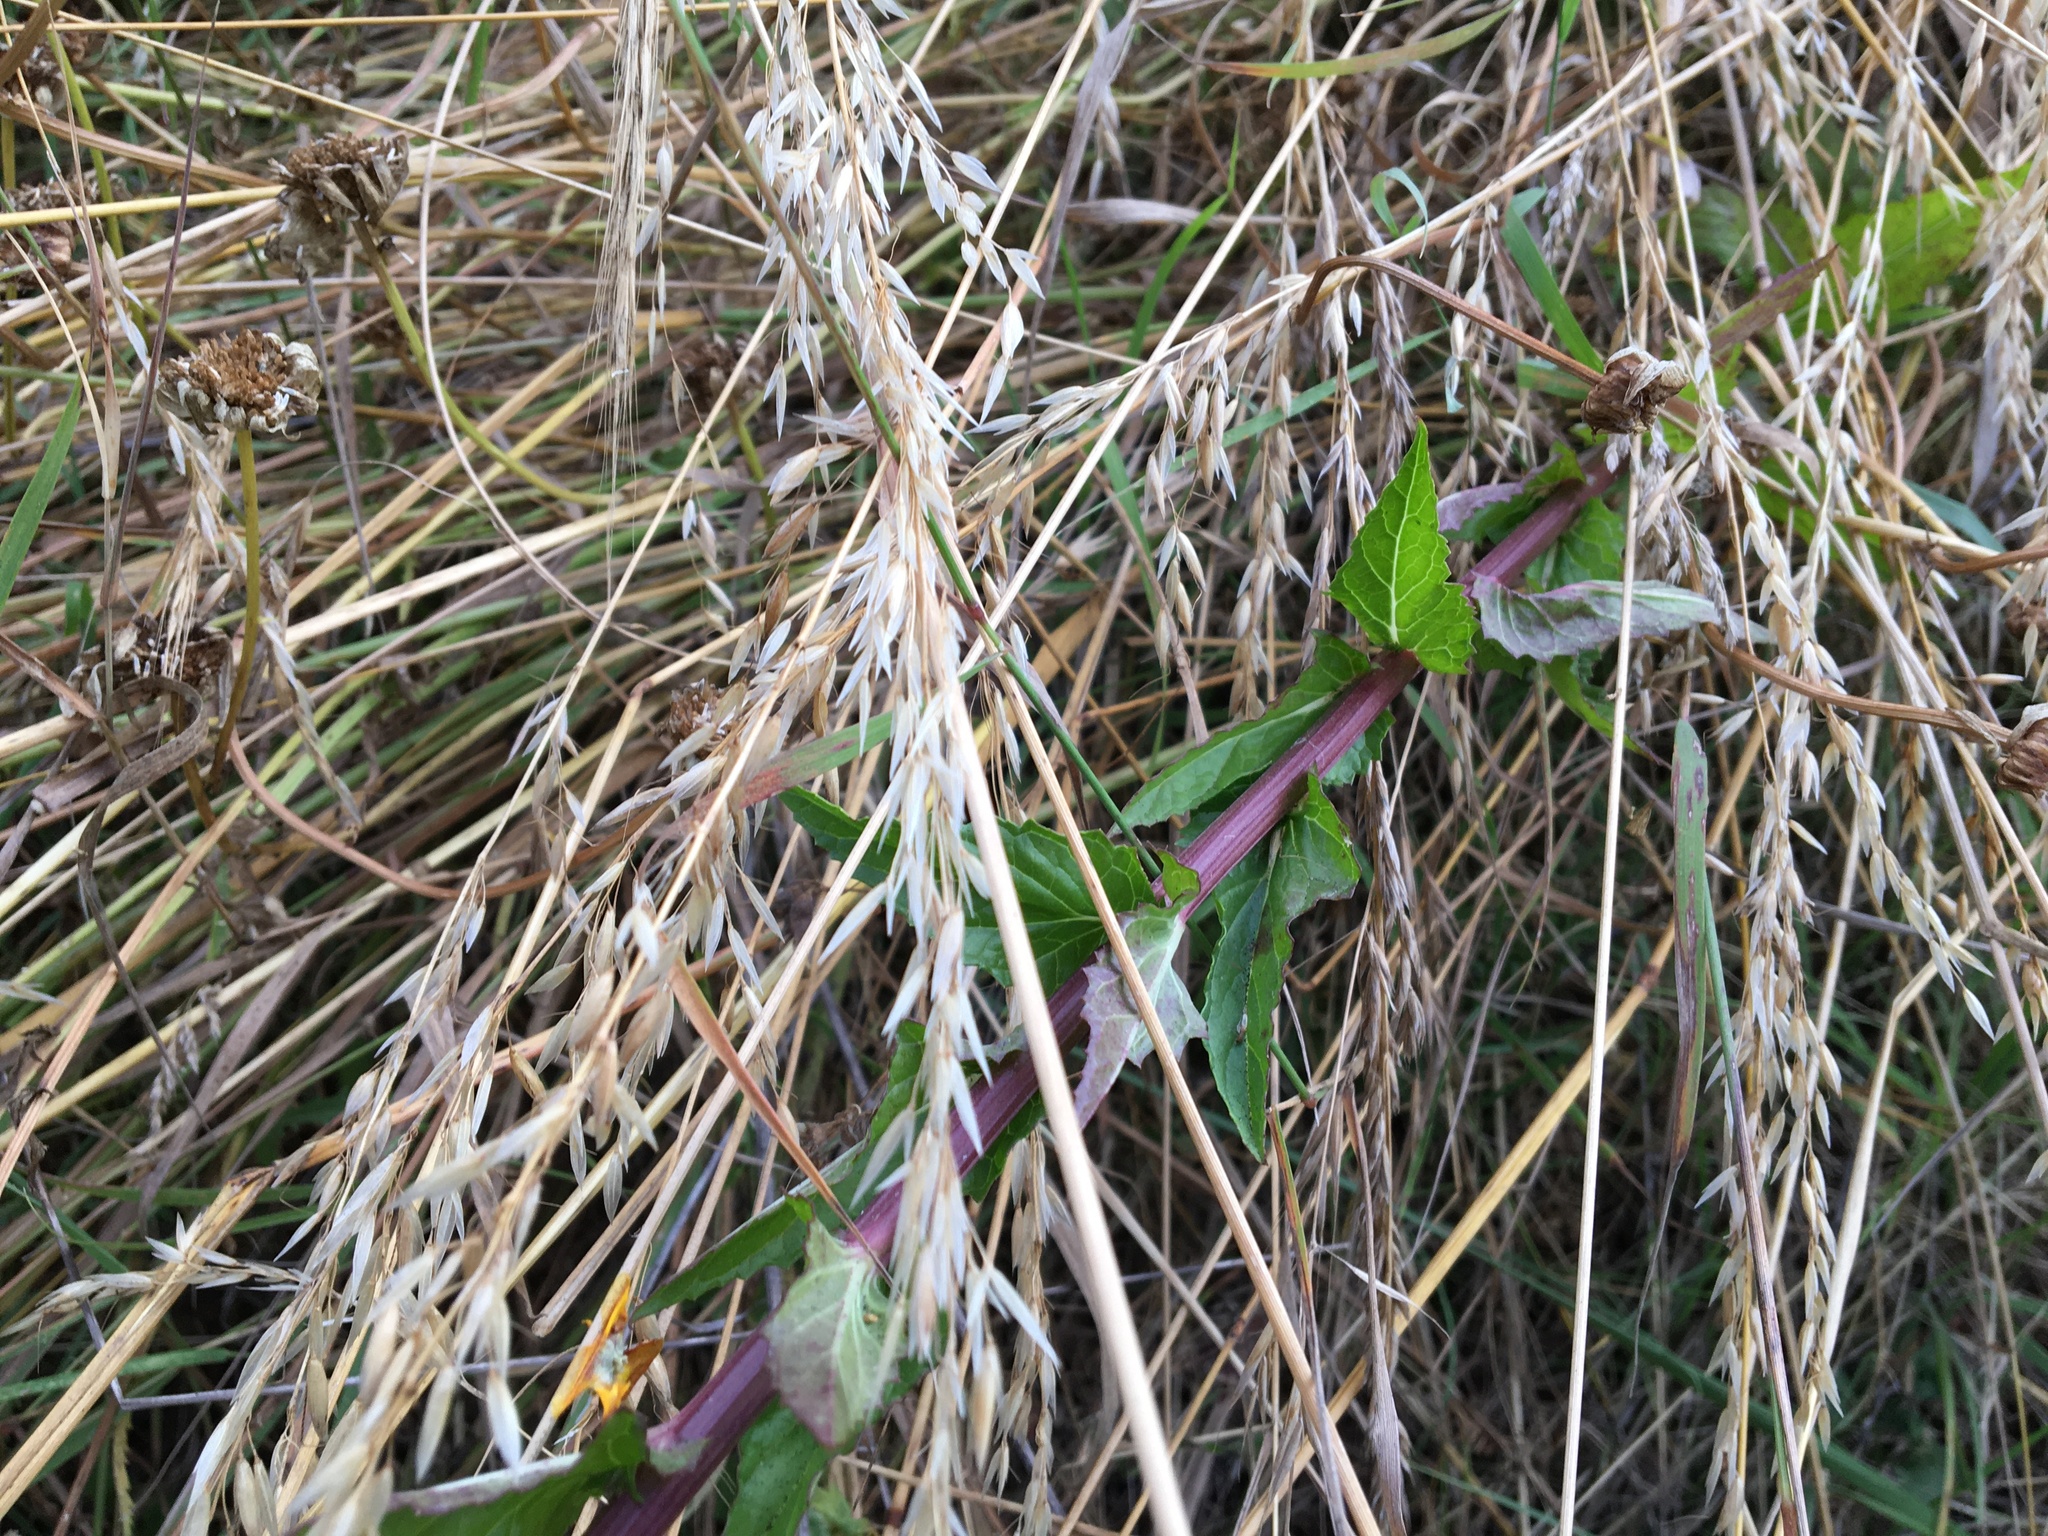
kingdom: Plantae
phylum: Tracheophyta
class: Magnoliopsida
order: Lamiales
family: Scrophulariaceae
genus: Verbascum
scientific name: Verbascum blattaria
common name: Moth mullein
